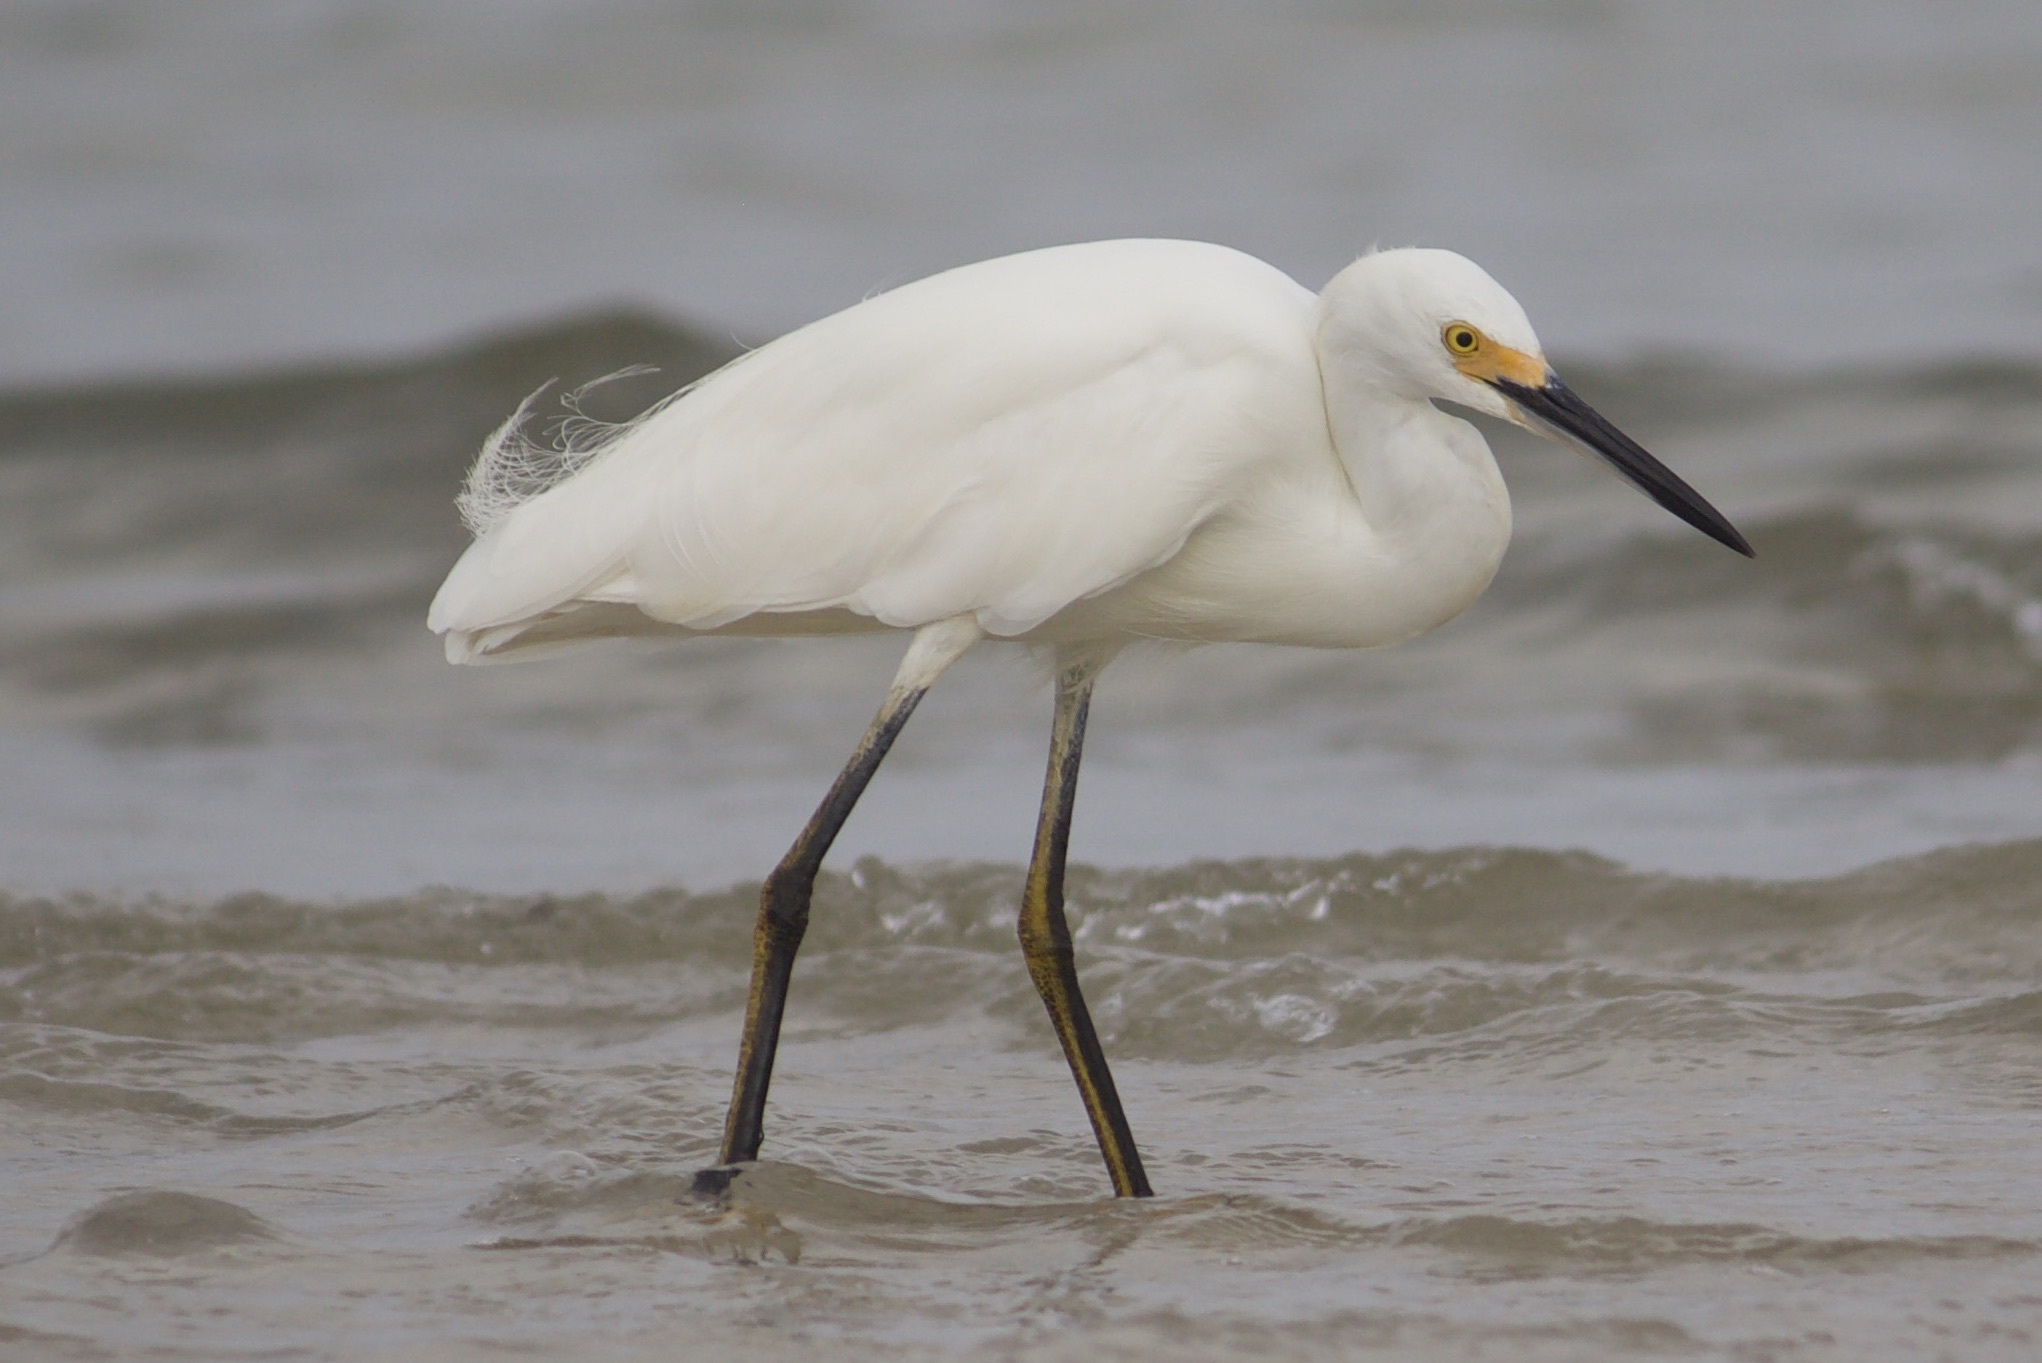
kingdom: Animalia
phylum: Chordata
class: Aves
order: Pelecaniformes
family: Ardeidae
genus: Egretta
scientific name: Egretta thula
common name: Snowy egret
